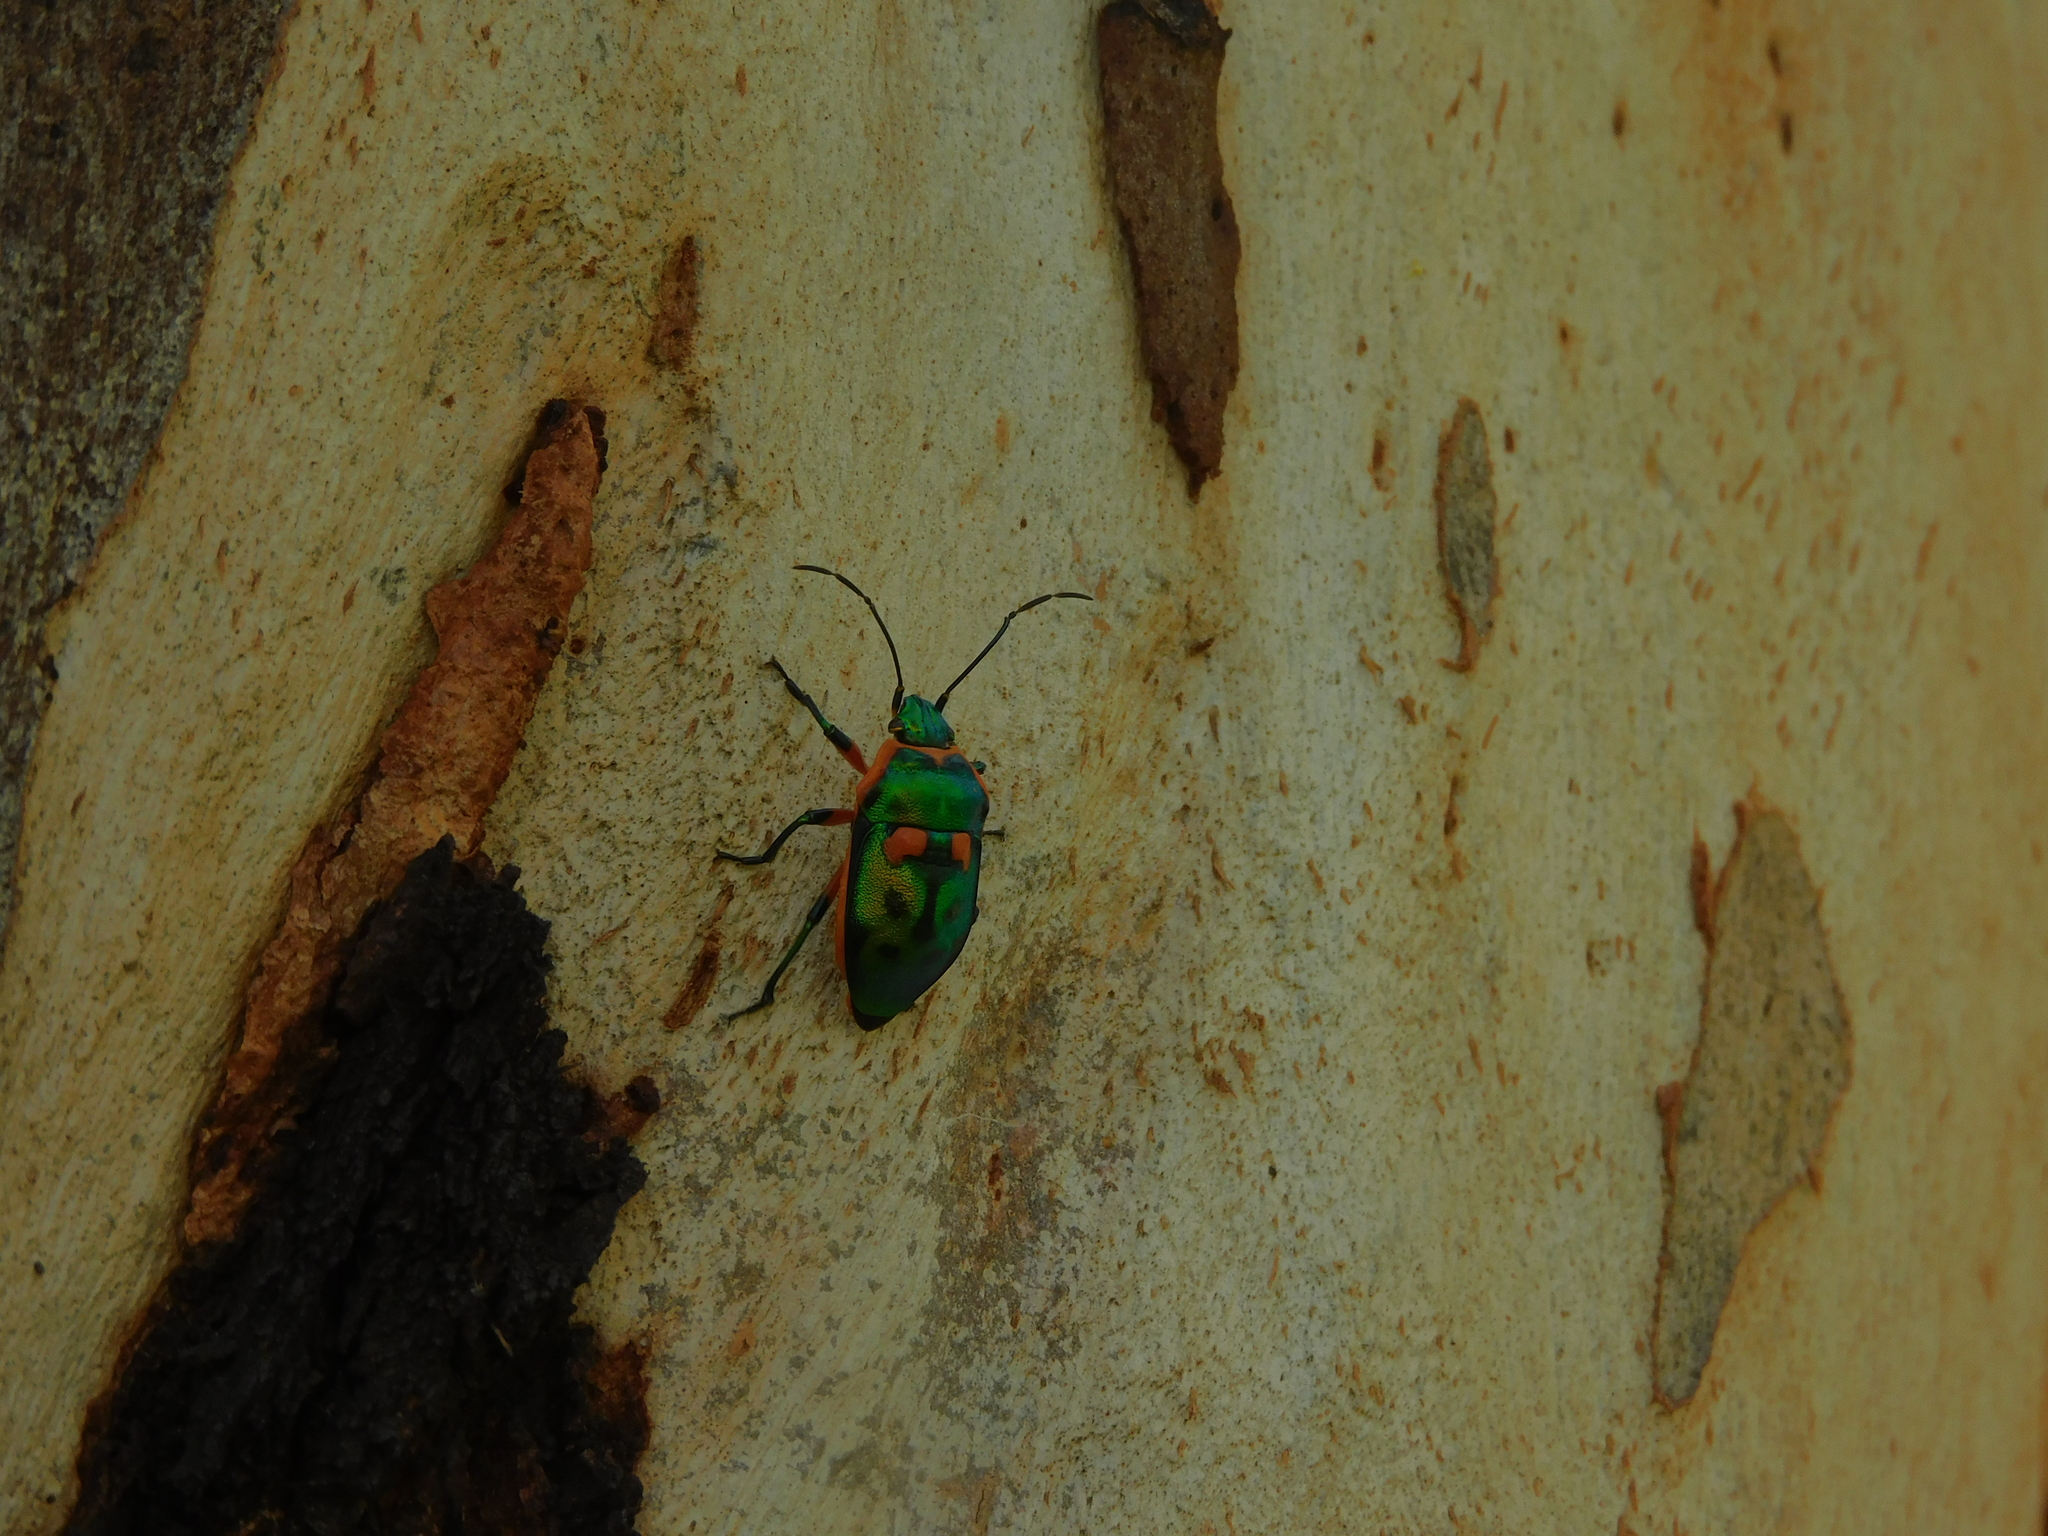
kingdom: Animalia
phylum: Arthropoda
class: Insecta
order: Hemiptera
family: Scutelleridae
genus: Scutiphora
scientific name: Scutiphora pedicellata
